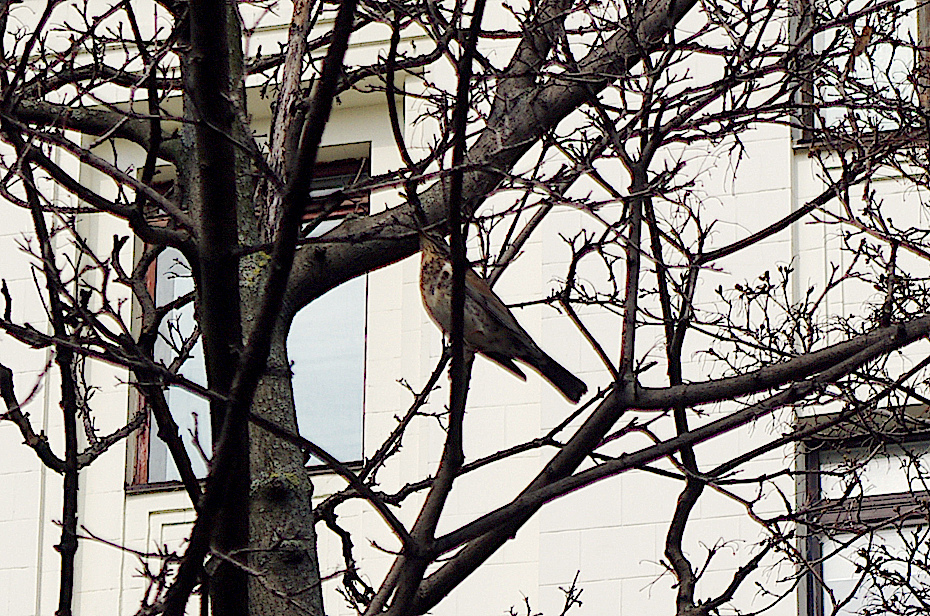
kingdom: Animalia
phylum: Chordata
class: Aves
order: Passeriformes
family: Turdidae
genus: Turdus
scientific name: Turdus pilaris
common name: Fieldfare
